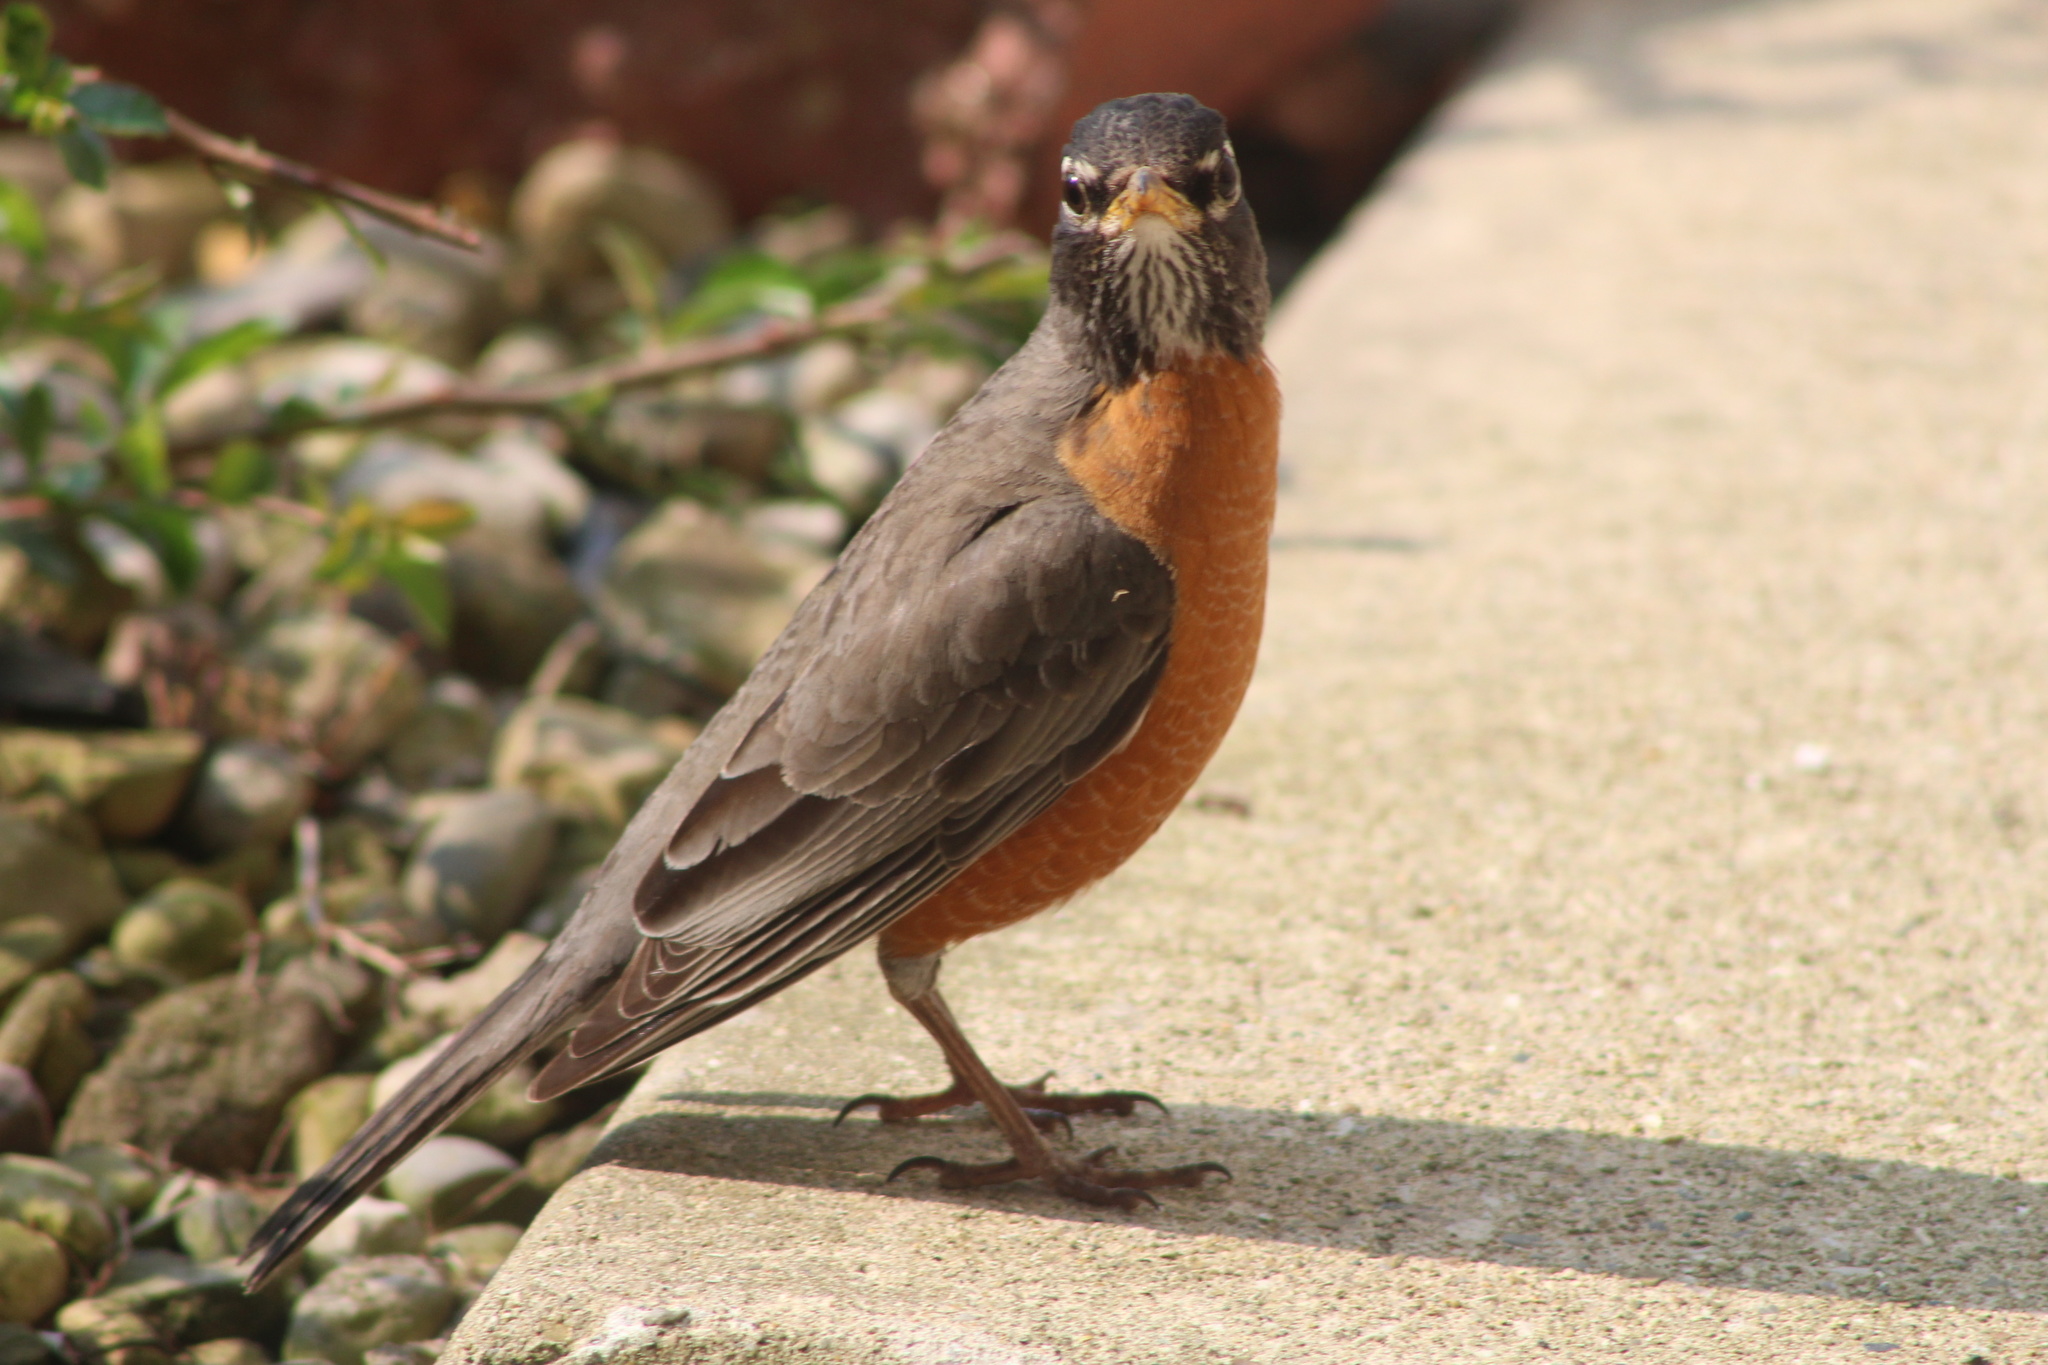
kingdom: Animalia
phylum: Chordata
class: Aves
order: Passeriformes
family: Turdidae
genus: Turdus
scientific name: Turdus migratorius
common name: American robin
